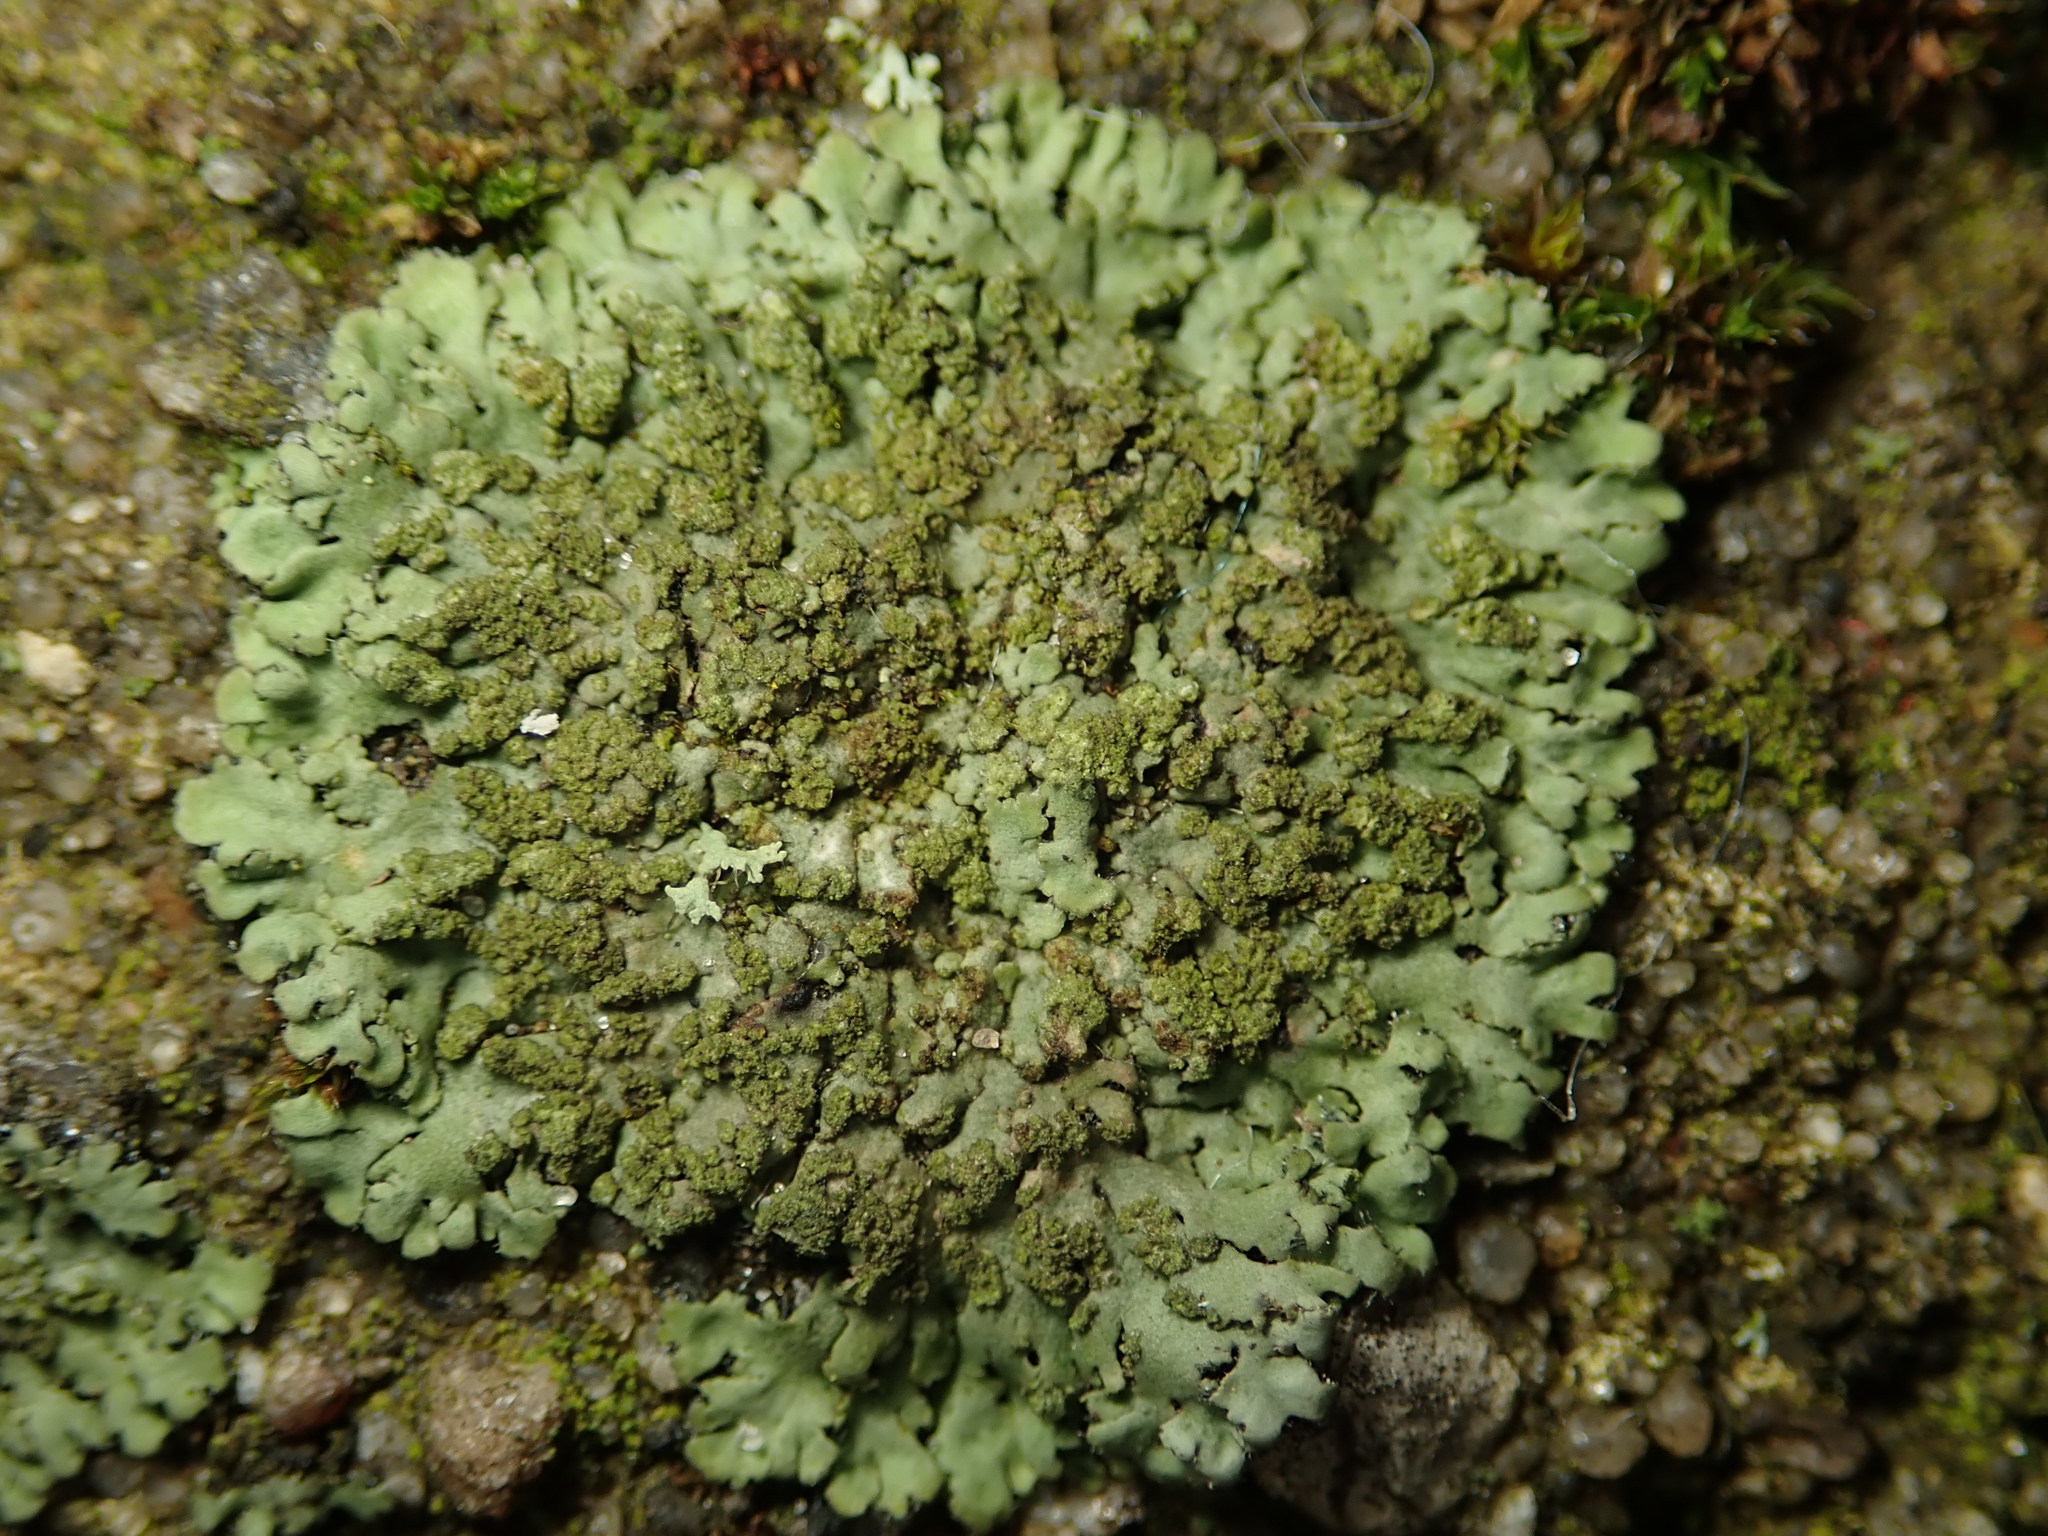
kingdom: Fungi
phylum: Ascomycota
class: Lecanoromycetes
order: Caliciales
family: Physciaceae
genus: Phaeophyscia
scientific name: Phaeophyscia orbicularis
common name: Mealy shadow lichen
